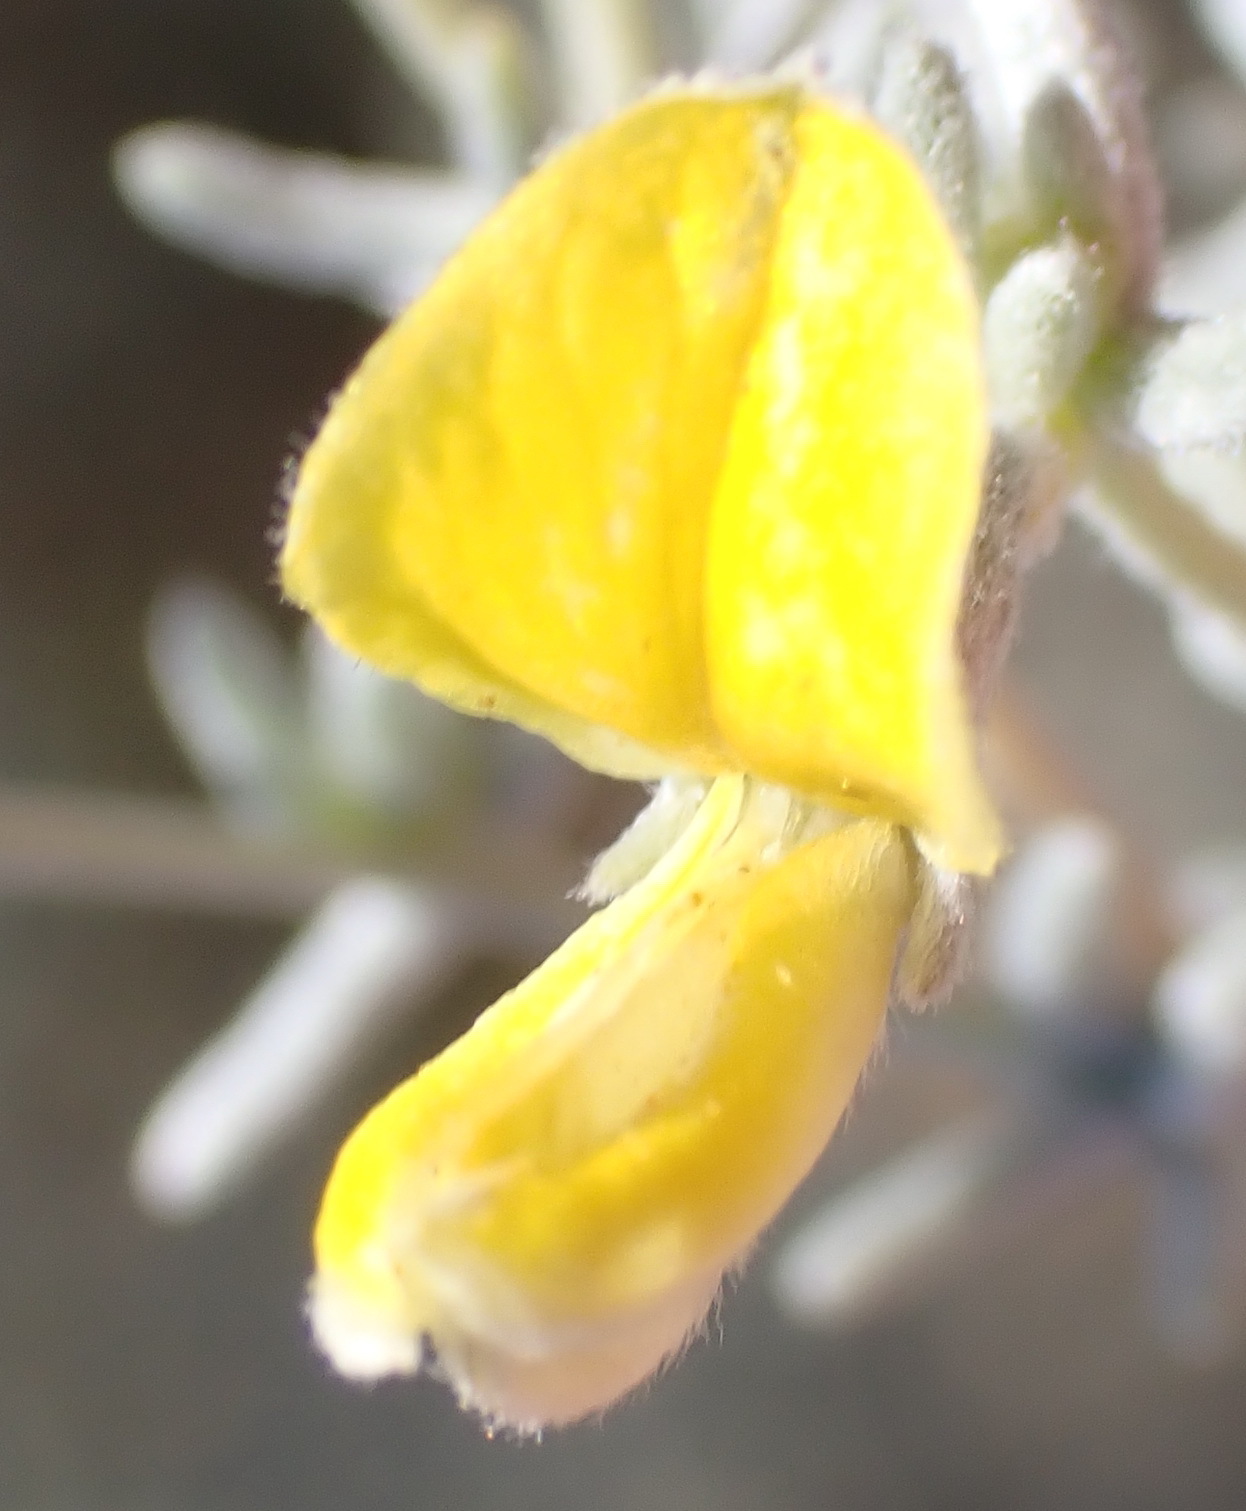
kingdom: Plantae
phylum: Tracheophyta
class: Magnoliopsida
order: Fabales
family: Fabaceae
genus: Aspalathus
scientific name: Aspalathus pedunculata
